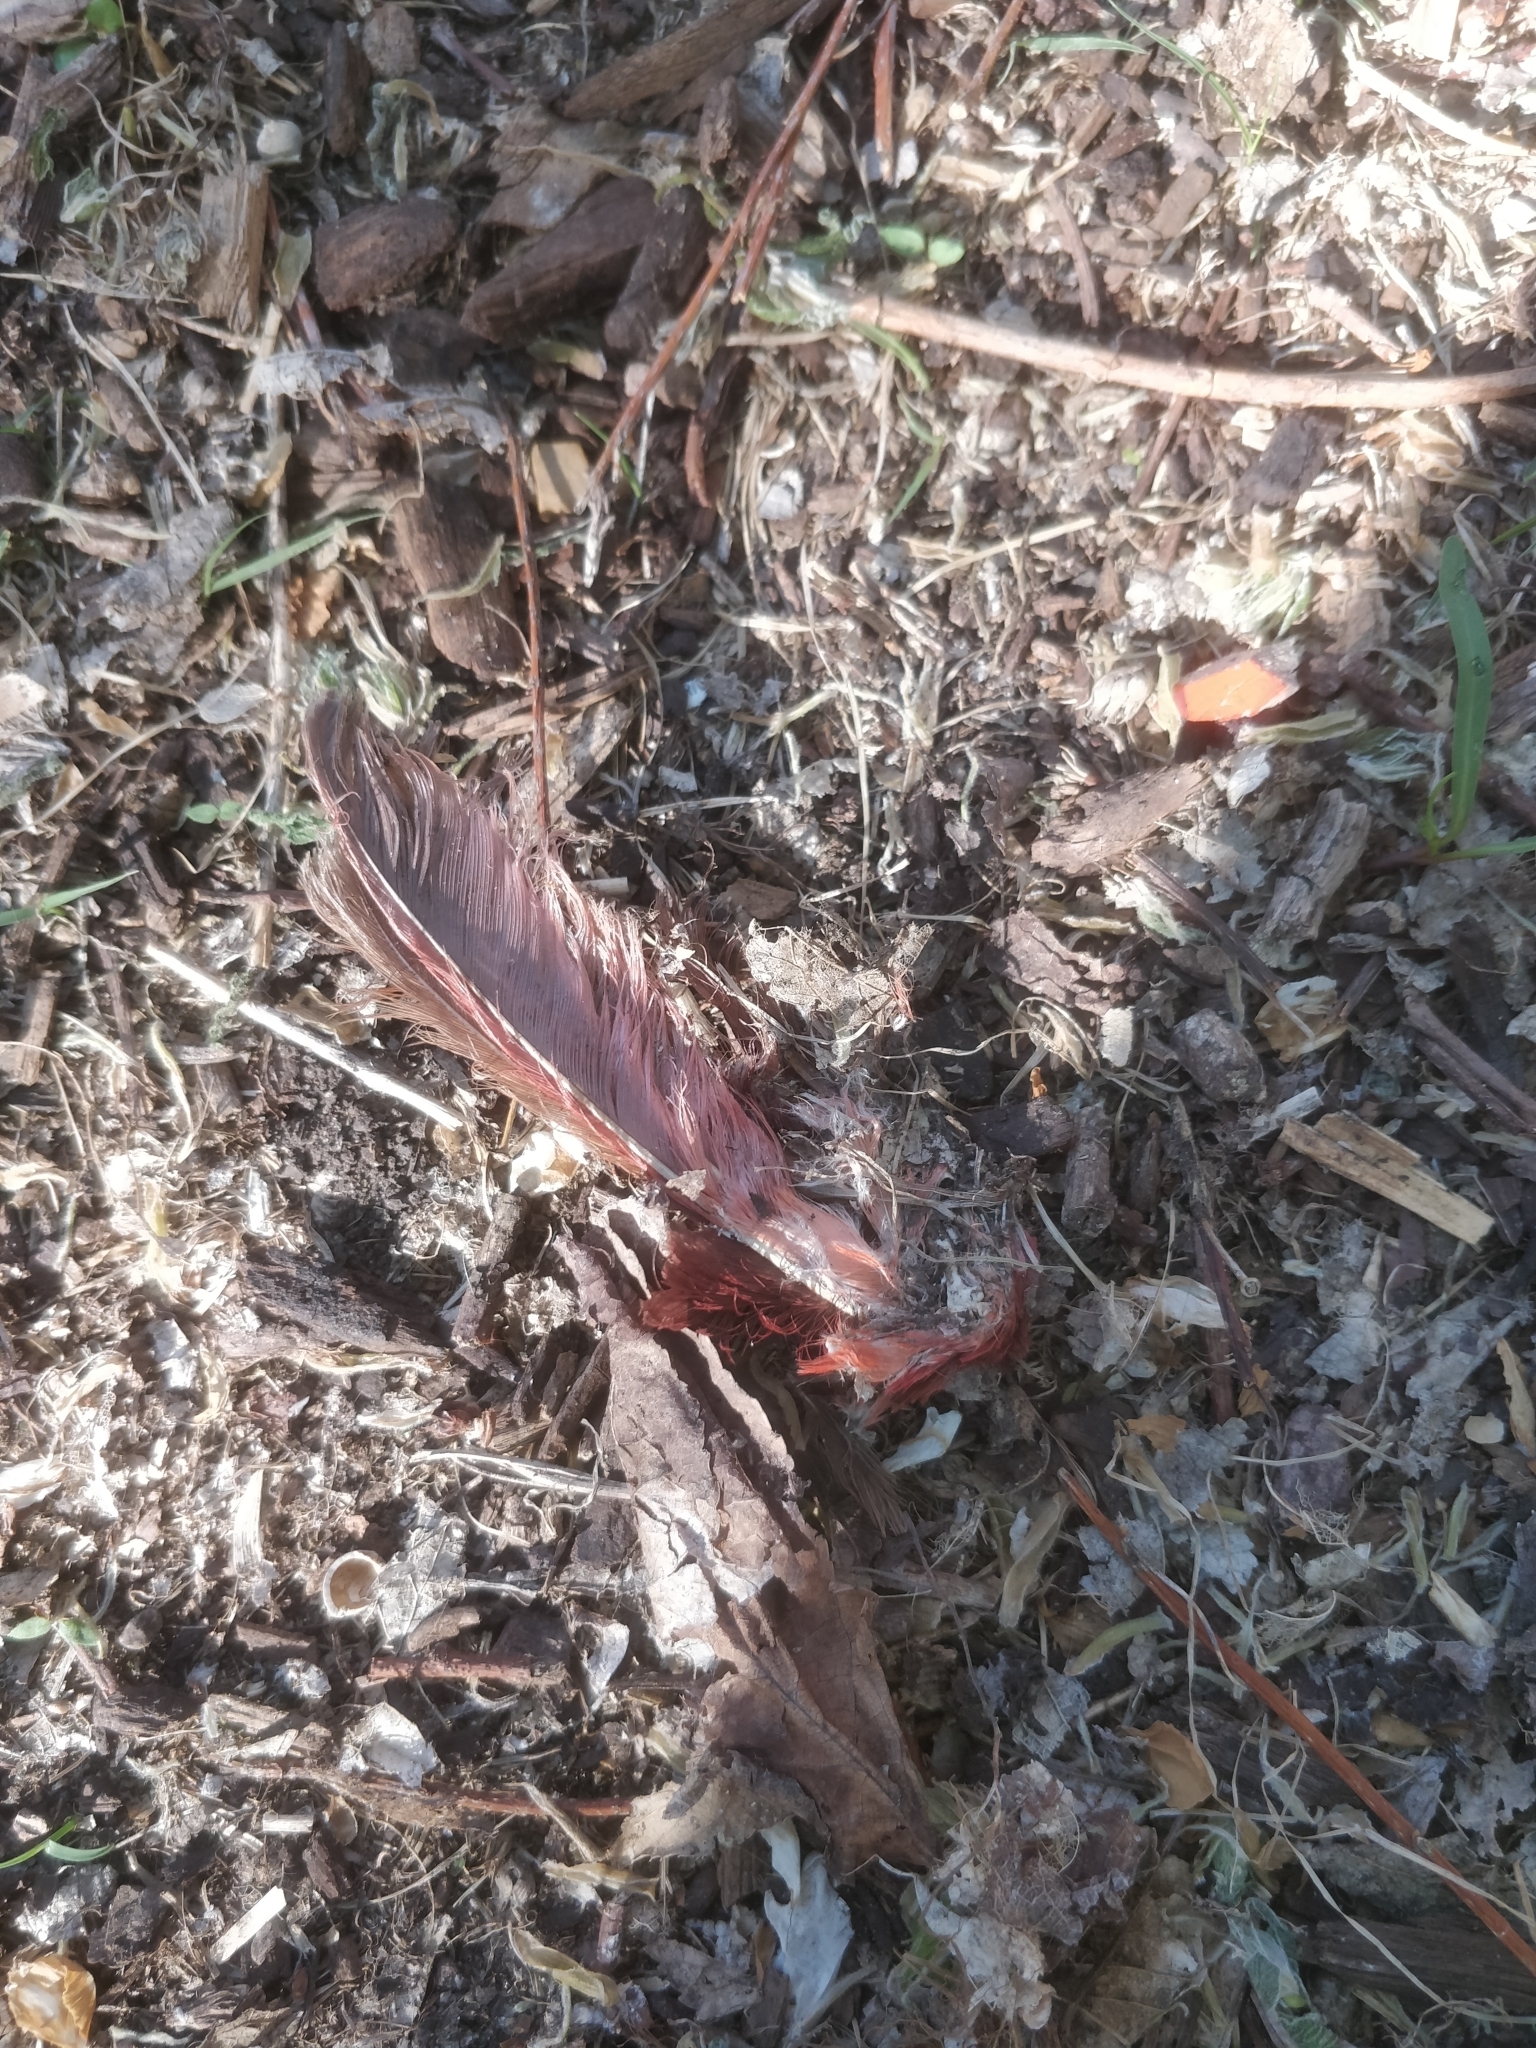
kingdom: Animalia
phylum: Chordata
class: Aves
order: Passeriformes
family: Cardinalidae
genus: Cardinalis
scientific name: Cardinalis cardinalis
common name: Northern cardinal
